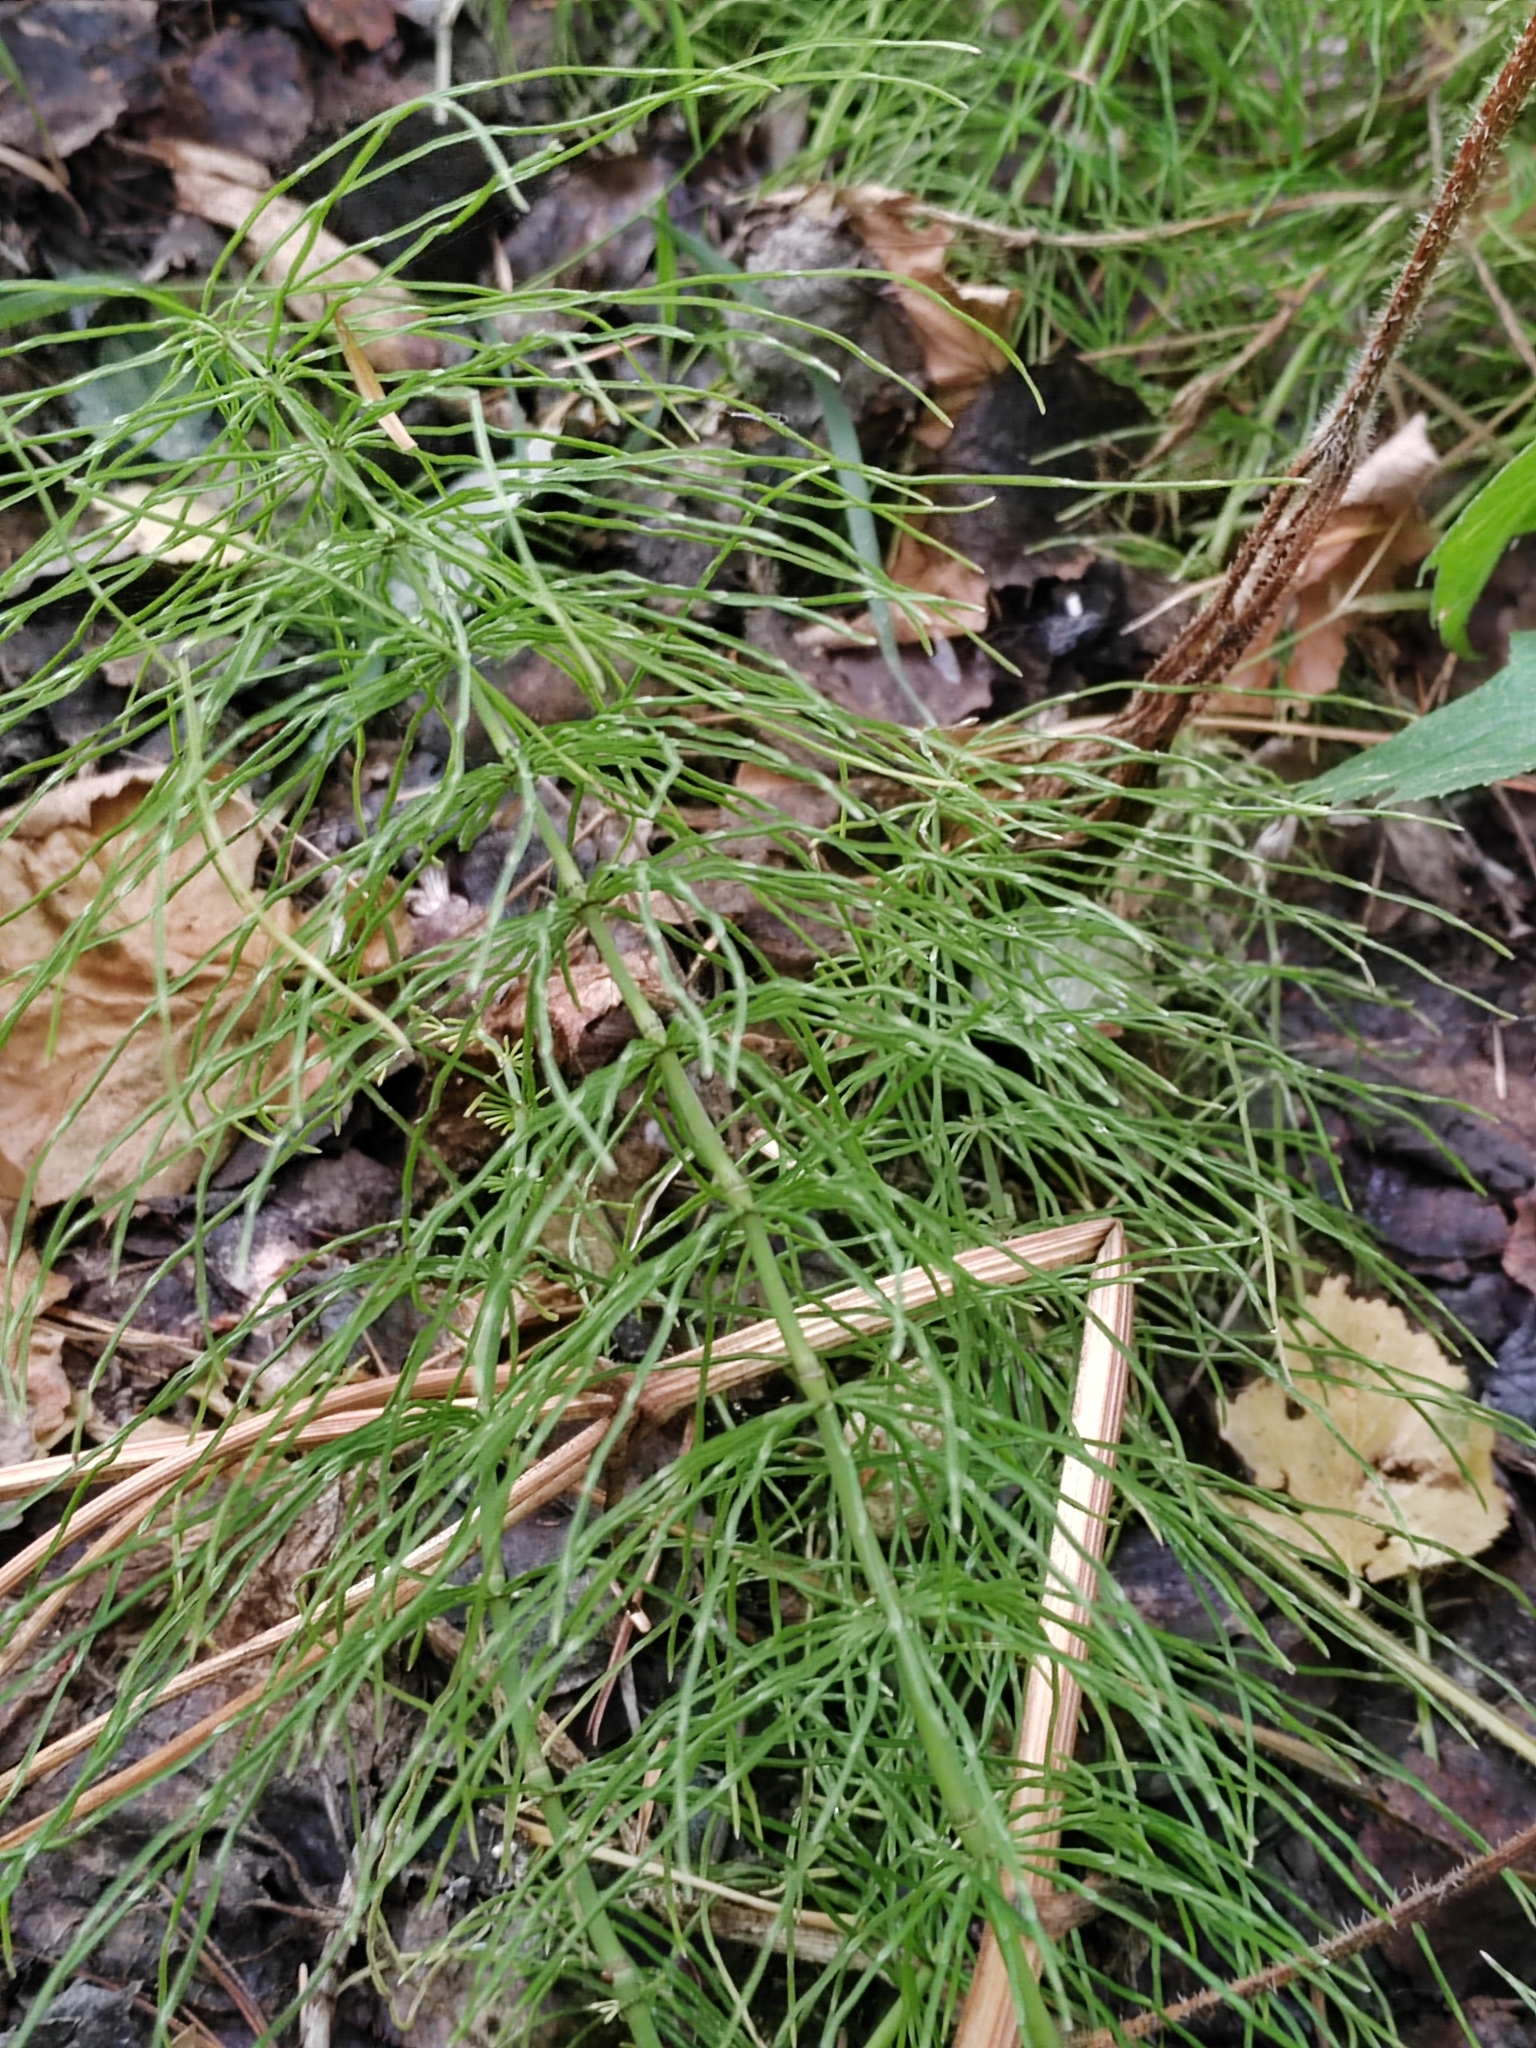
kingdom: Plantae
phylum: Tracheophyta
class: Polypodiopsida
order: Equisetales
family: Equisetaceae
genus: Equisetum
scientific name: Equisetum pratense
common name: Meadow horsetail
